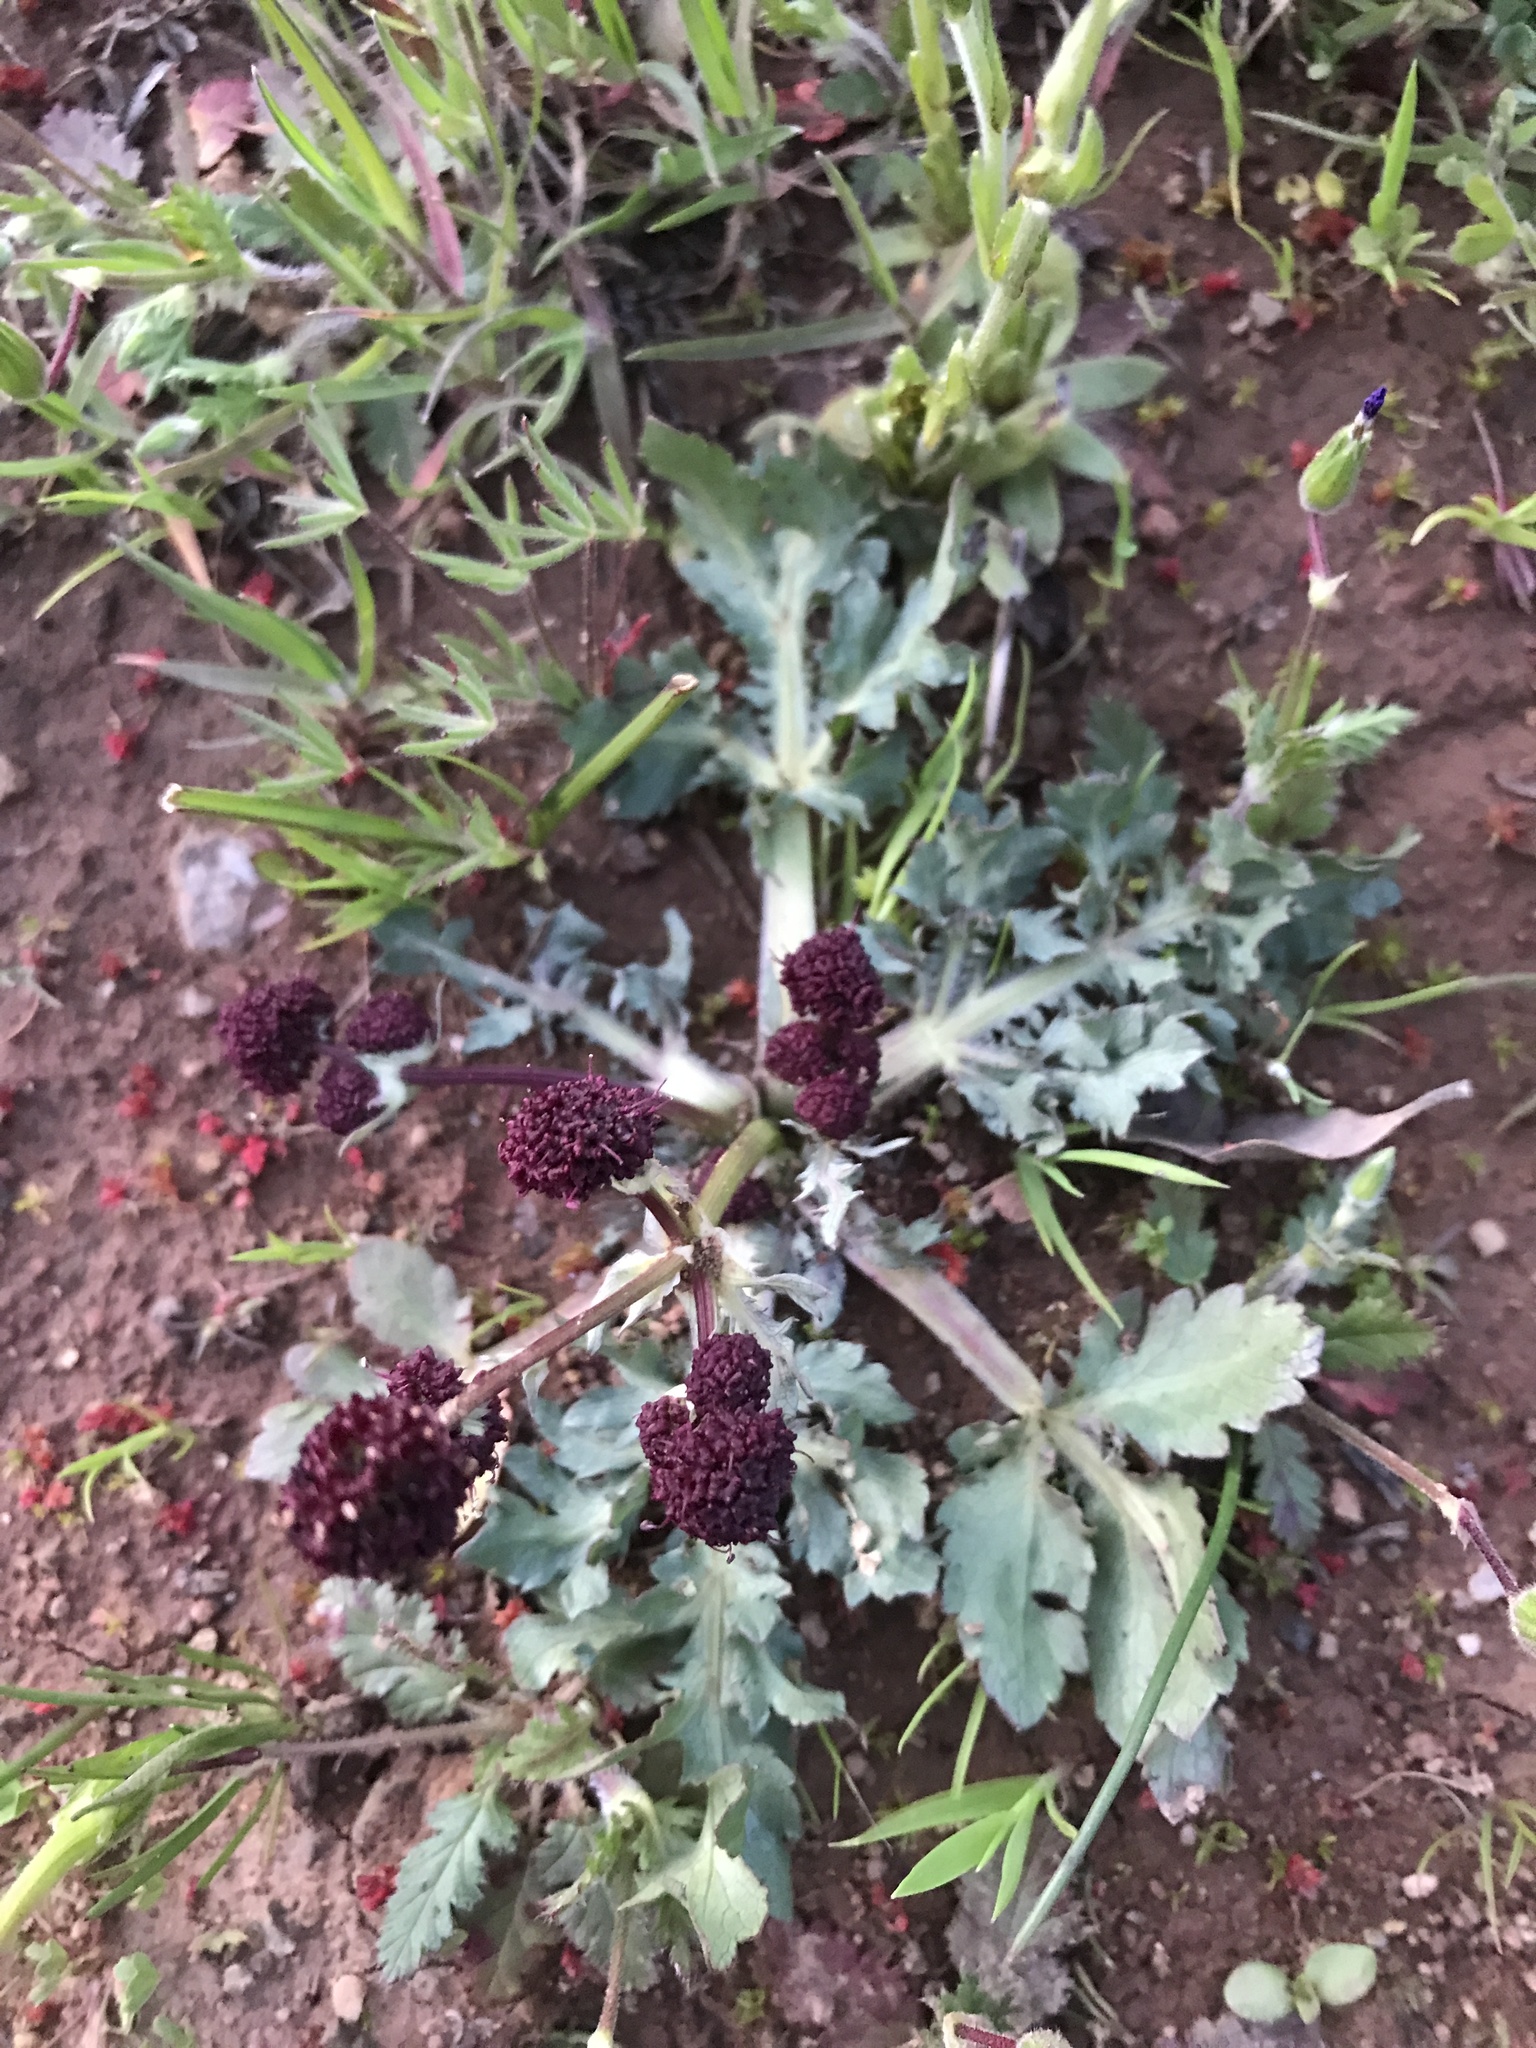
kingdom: Plantae
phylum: Tracheophyta
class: Magnoliopsida
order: Apiales
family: Apiaceae
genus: Sanicula
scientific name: Sanicula bipinnatifida
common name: Shoe-buttons
